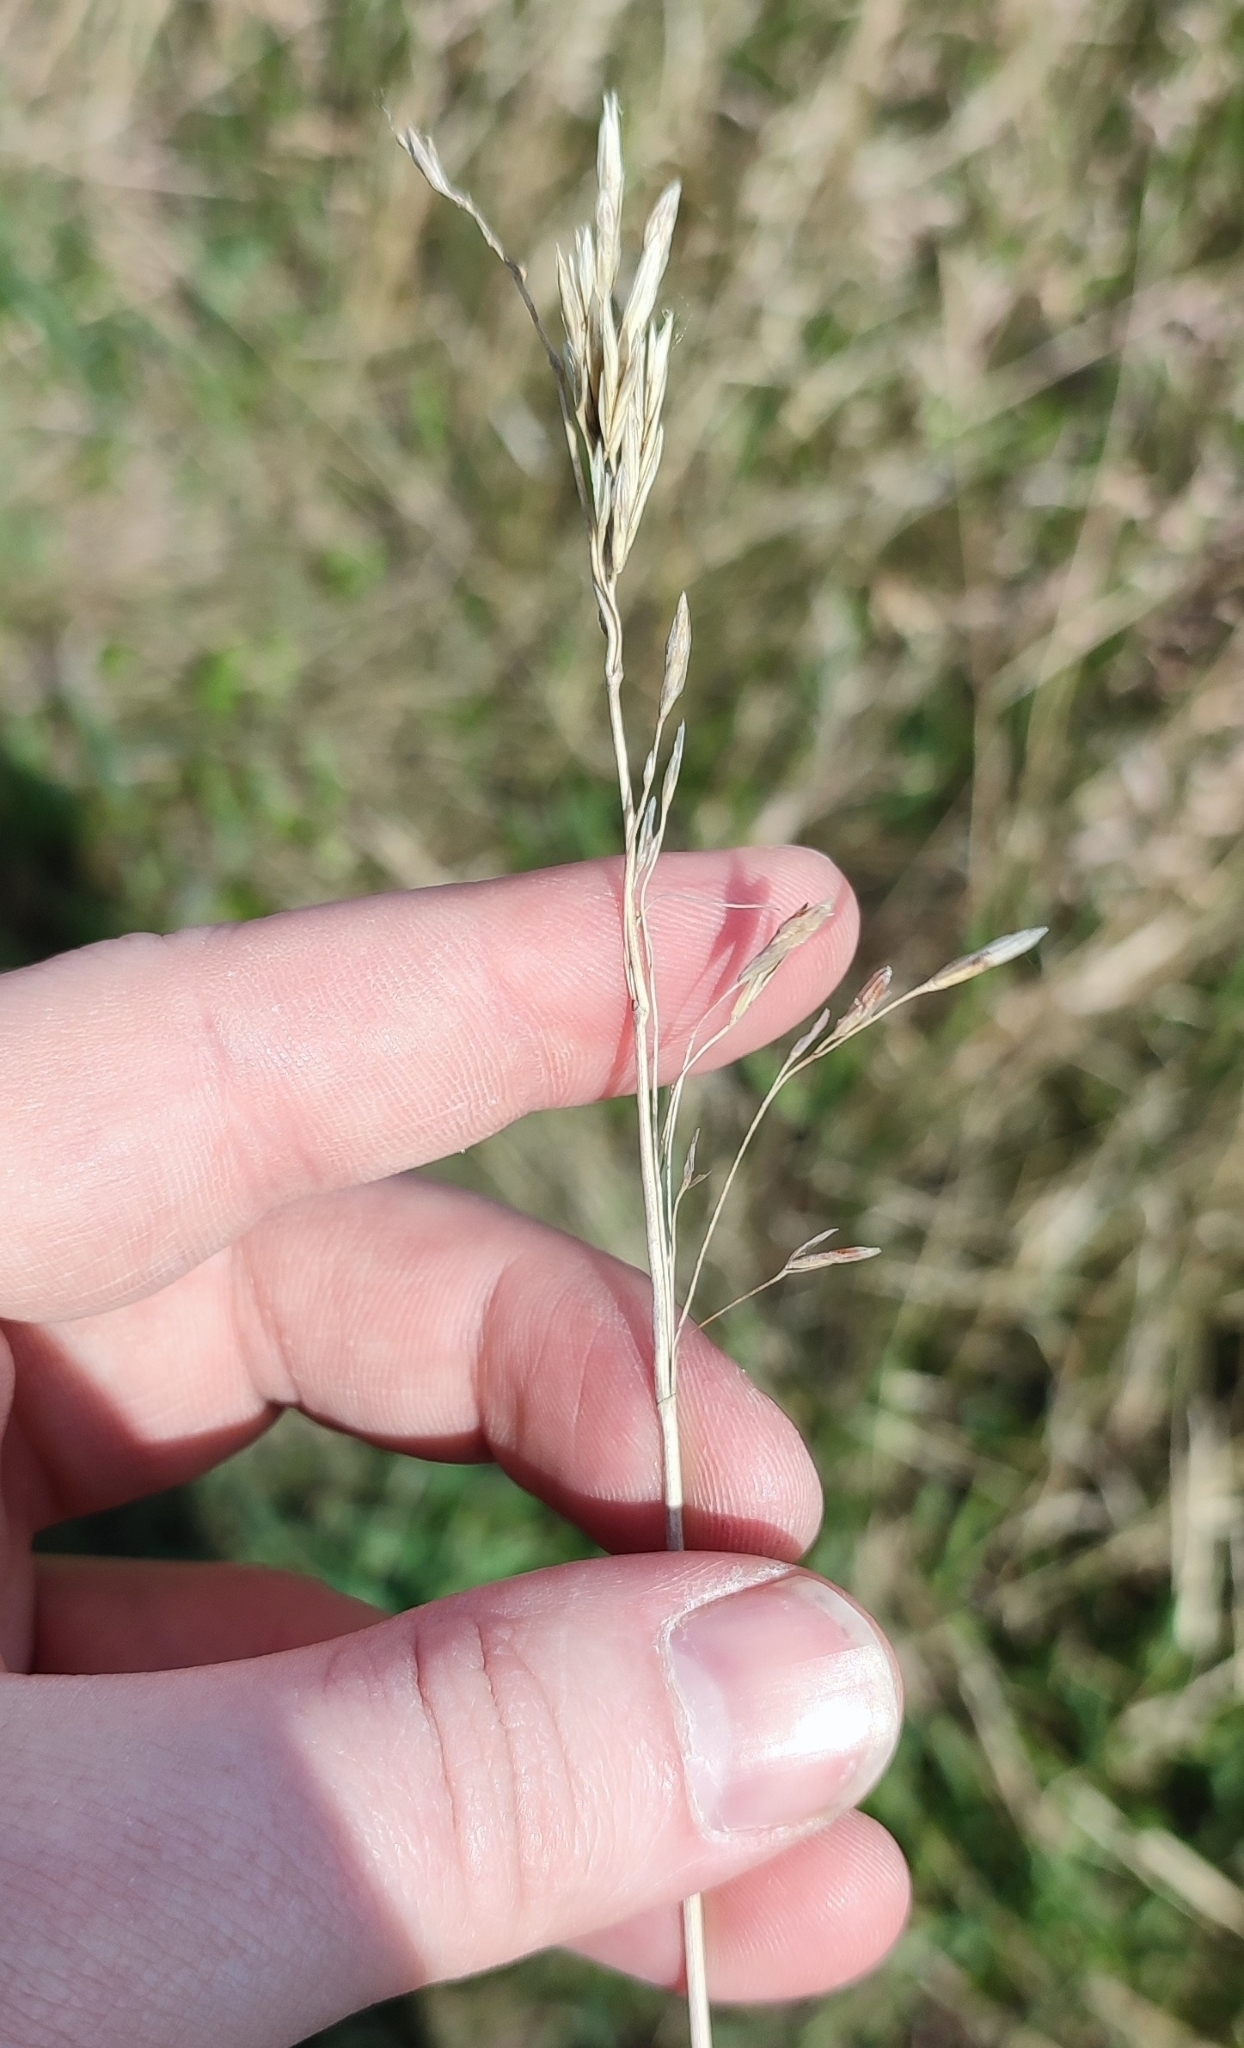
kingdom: Plantae
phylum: Tracheophyta
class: Liliopsida
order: Poales
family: Poaceae
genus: Bromus
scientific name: Bromus inermis
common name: Smooth brome
